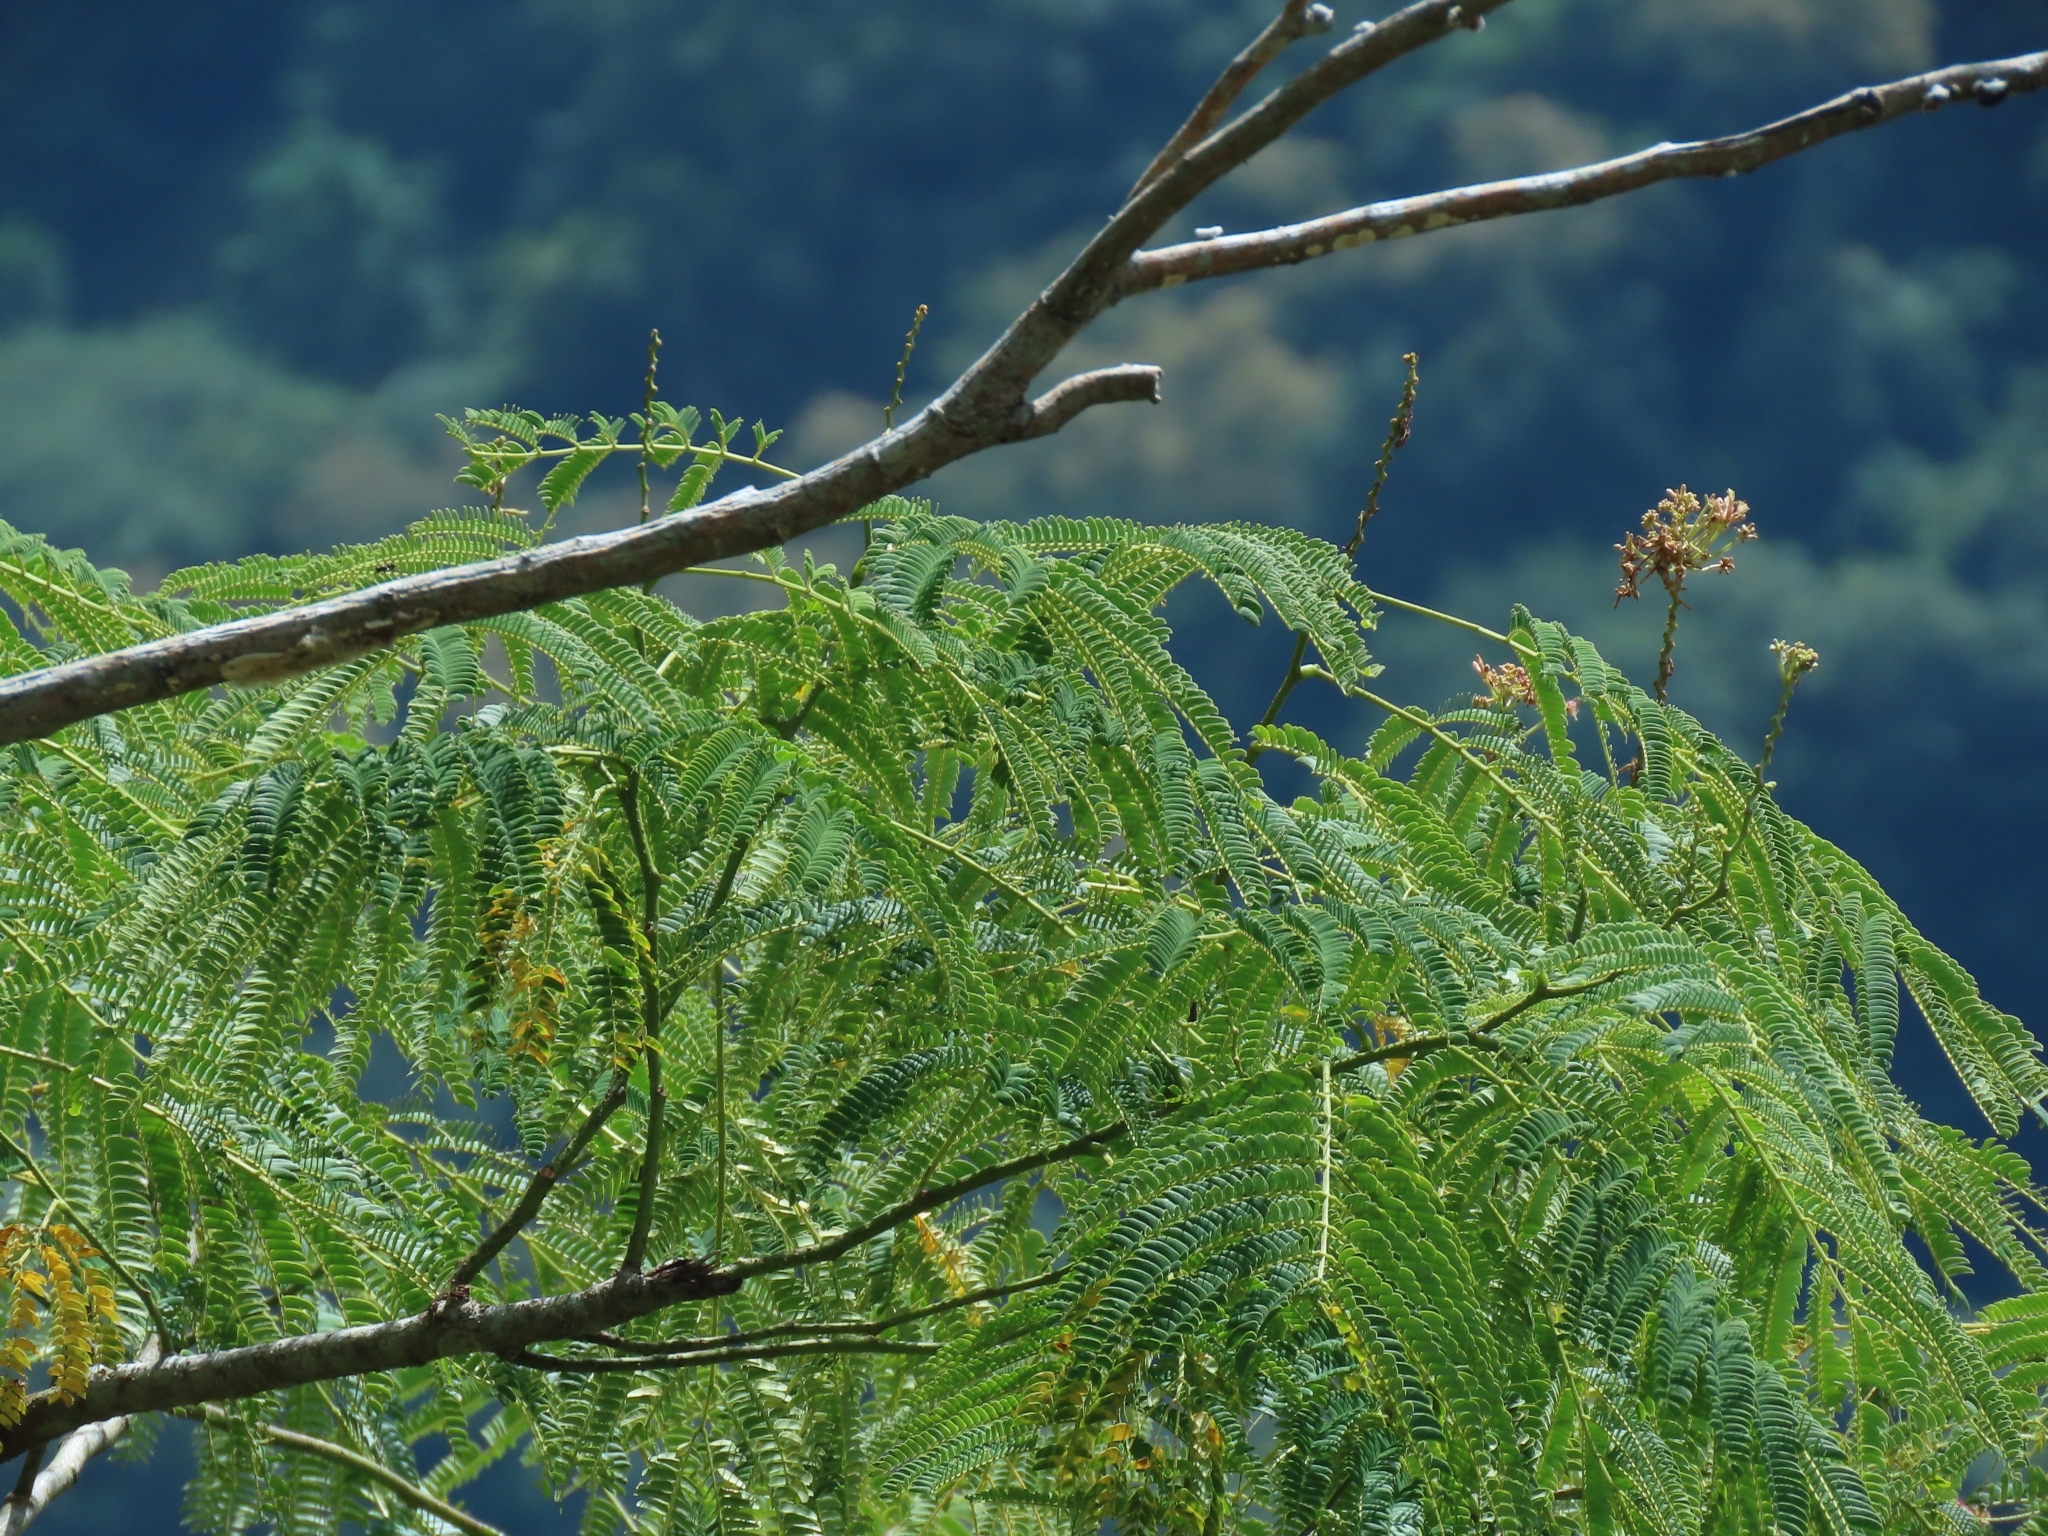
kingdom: Plantae
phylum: Tracheophyta
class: Magnoliopsida
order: Fabales
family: Fabaceae
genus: Albizia
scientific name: Albizia julibrissin
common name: Silktree
